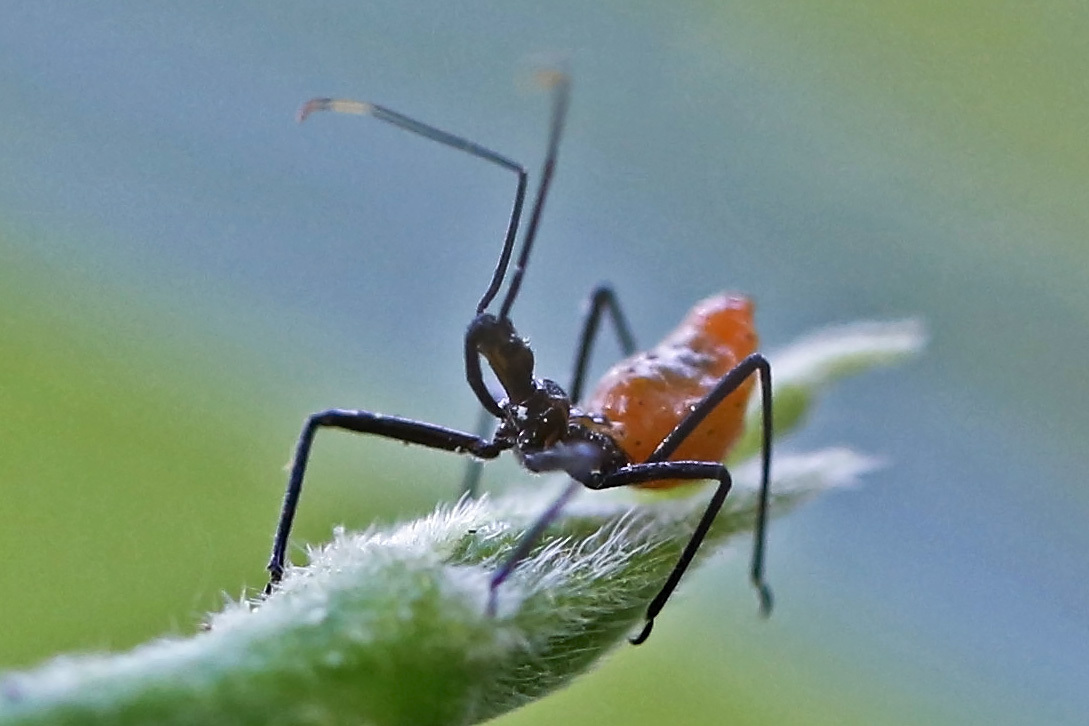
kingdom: Animalia
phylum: Arthropoda
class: Insecta
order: Hemiptera
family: Reduviidae
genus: Arilus
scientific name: Arilus cristatus
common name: North american wheel bug
